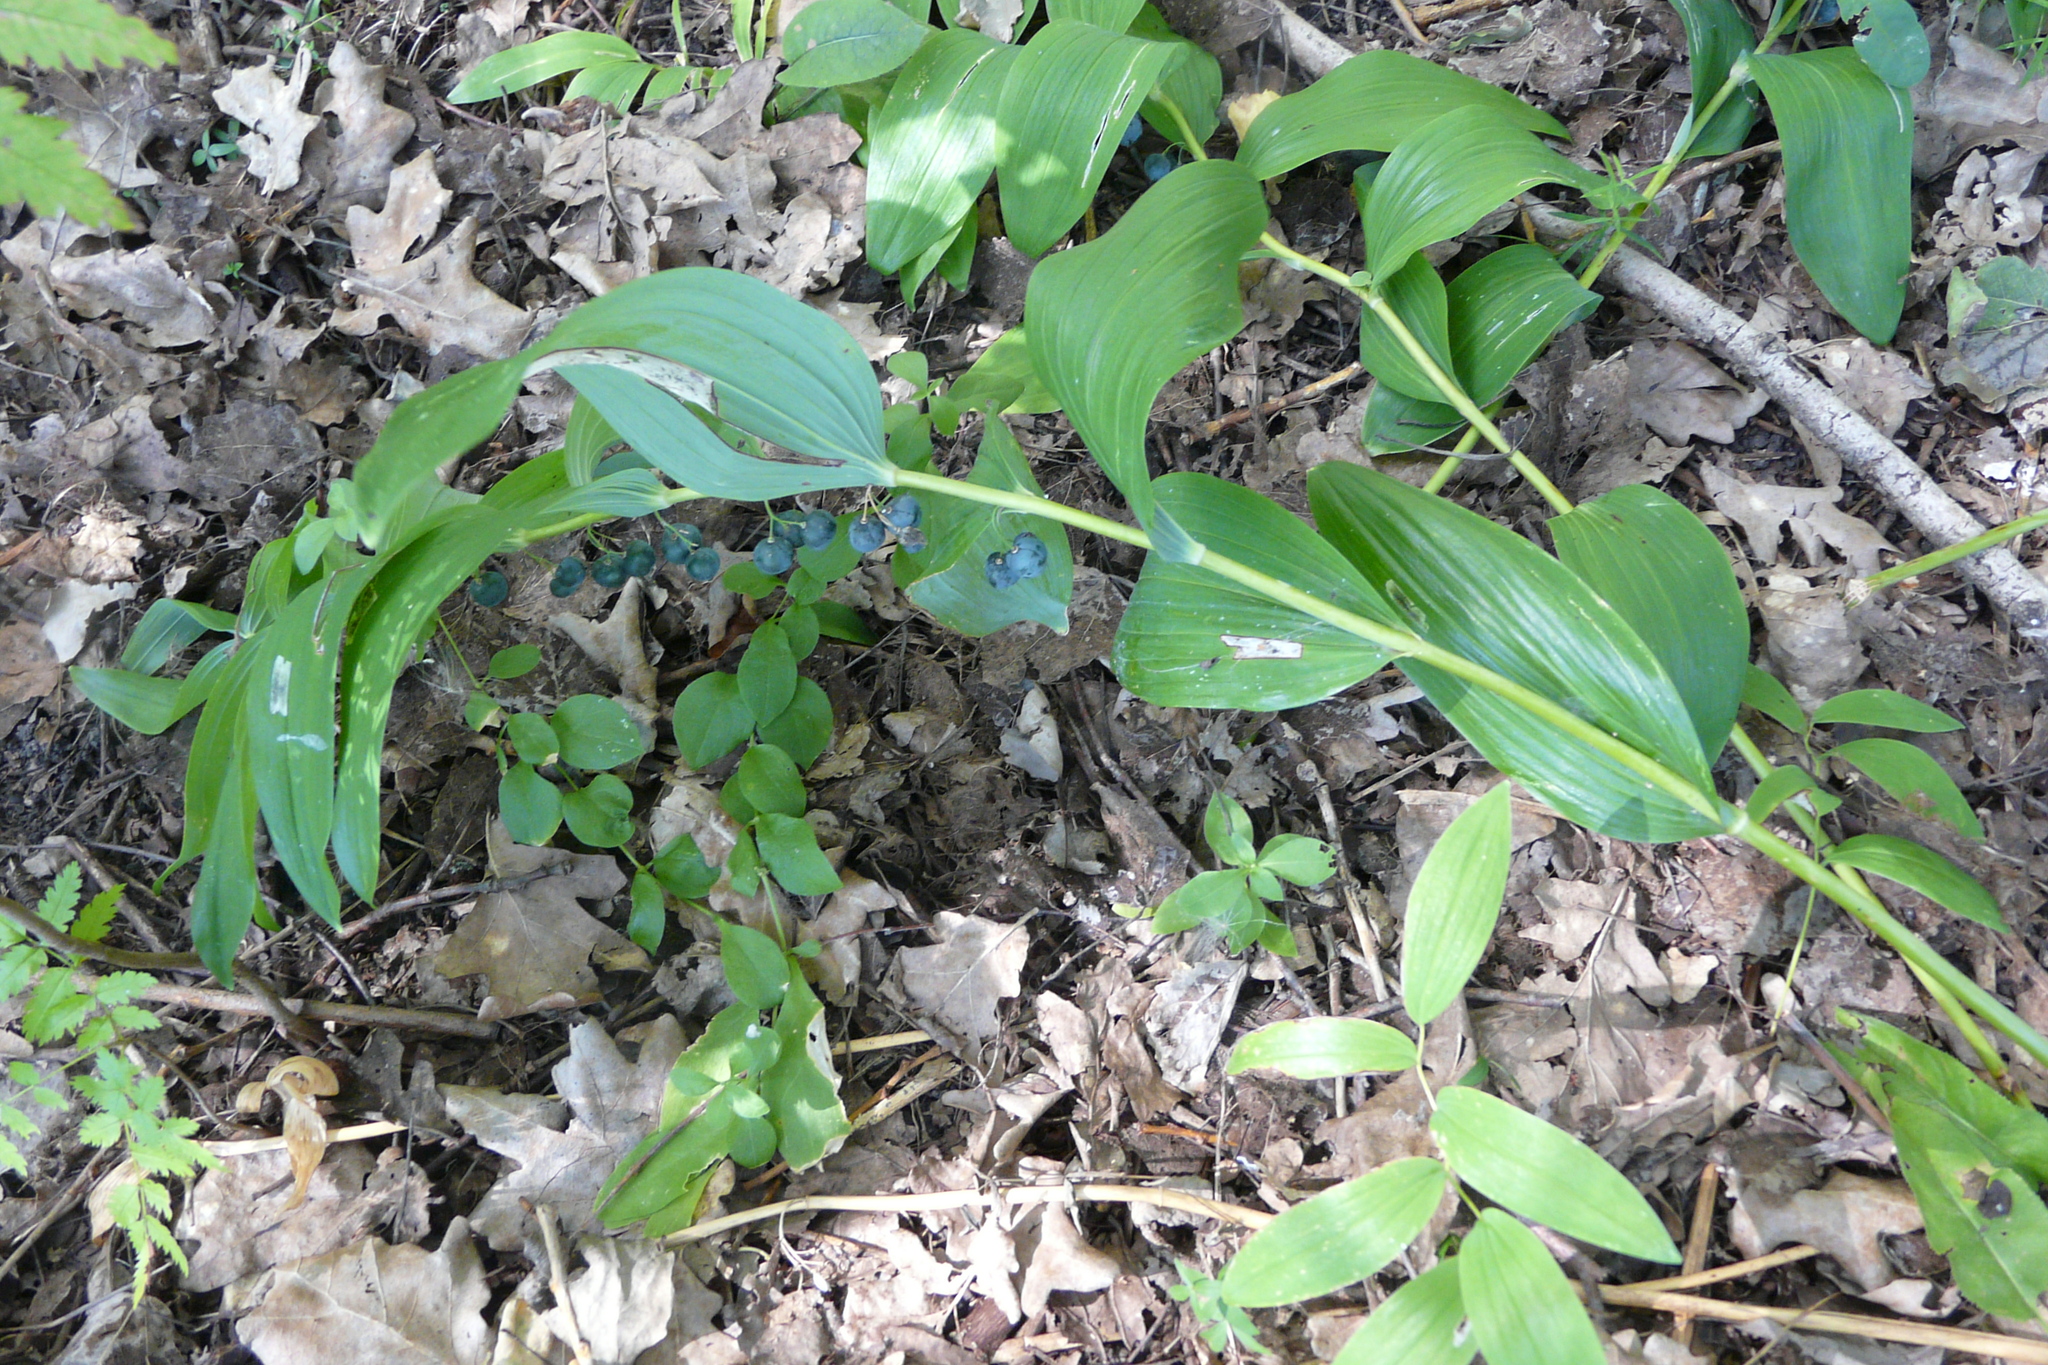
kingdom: Plantae
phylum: Tracheophyta
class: Liliopsida
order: Asparagales
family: Asparagaceae
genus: Polygonatum
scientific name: Polygonatum multiflorum
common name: Solomon's-seal
